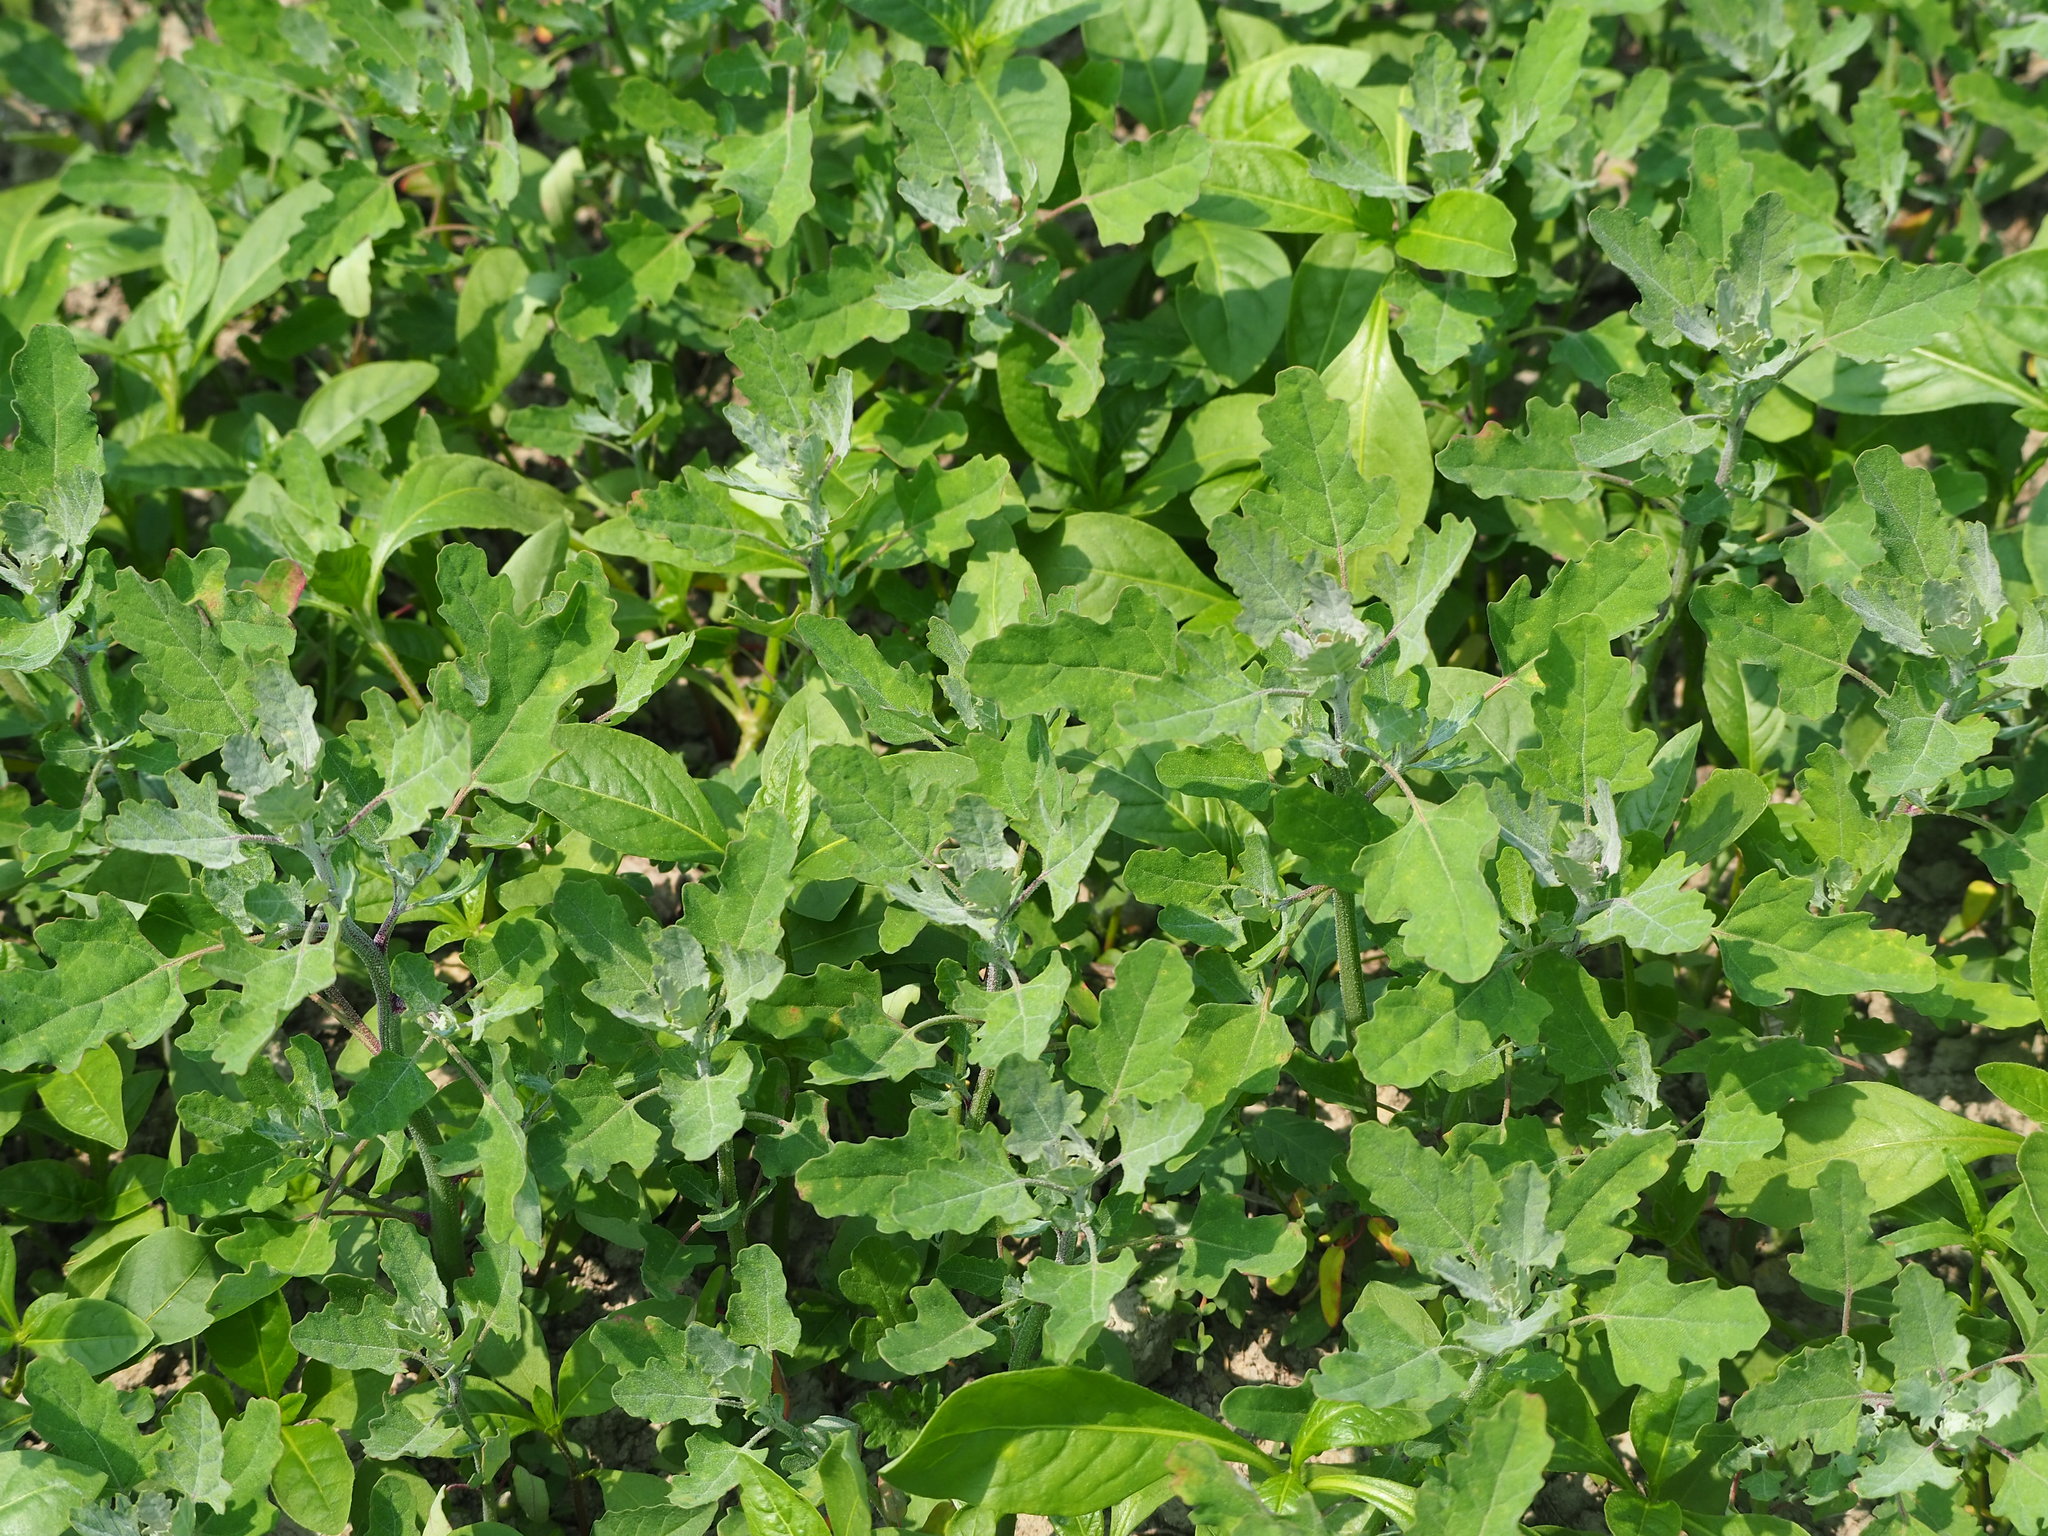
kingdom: Plantae
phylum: Tracheophyta
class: Magnoliopsida
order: Caryophyllales
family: Amaranthaceae
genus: Chenopodium
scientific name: Chenopodium ficifolium
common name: Fig-leaved goosefoot
